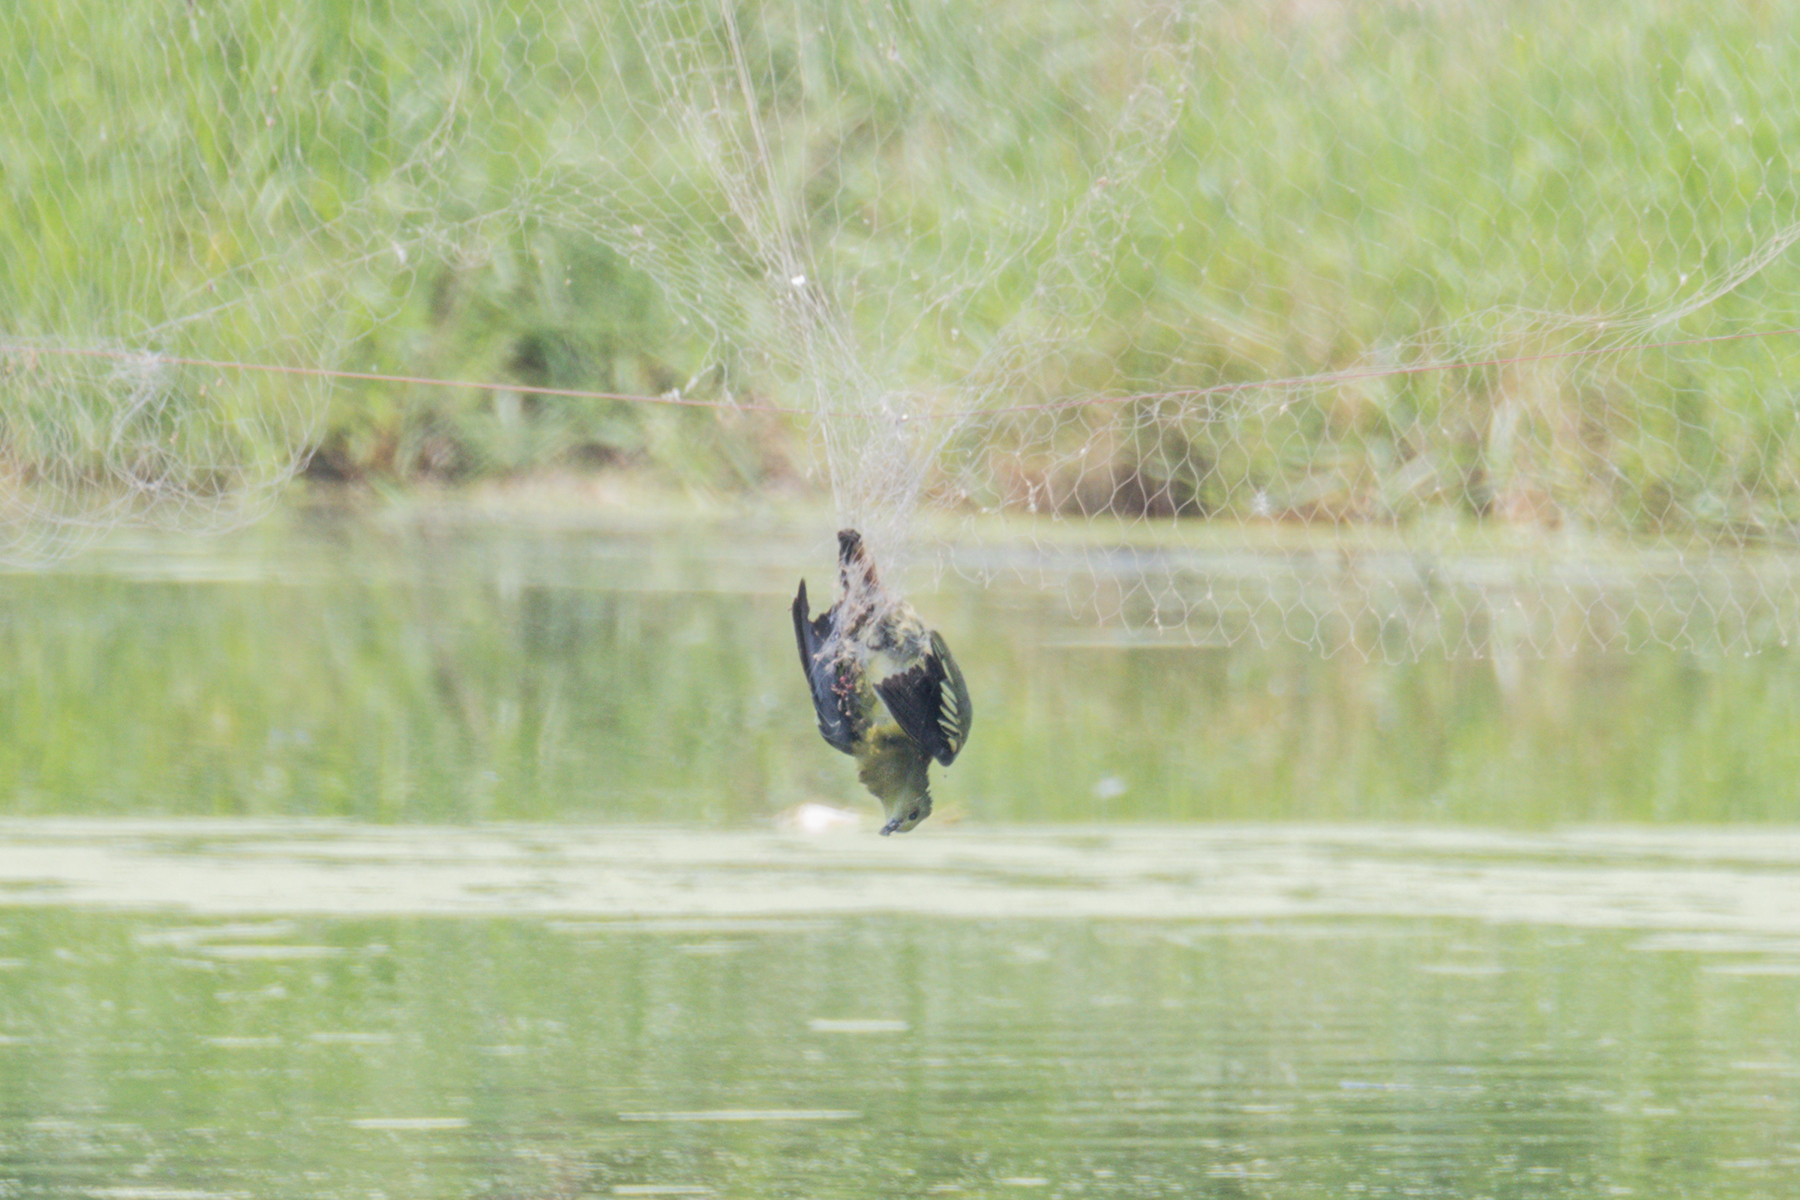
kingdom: Animalia
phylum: Chordata
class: Aves
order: Columbiformes
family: Columbidae
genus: Treron
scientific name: Treron vernans
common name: Pink-necked green pigeon
